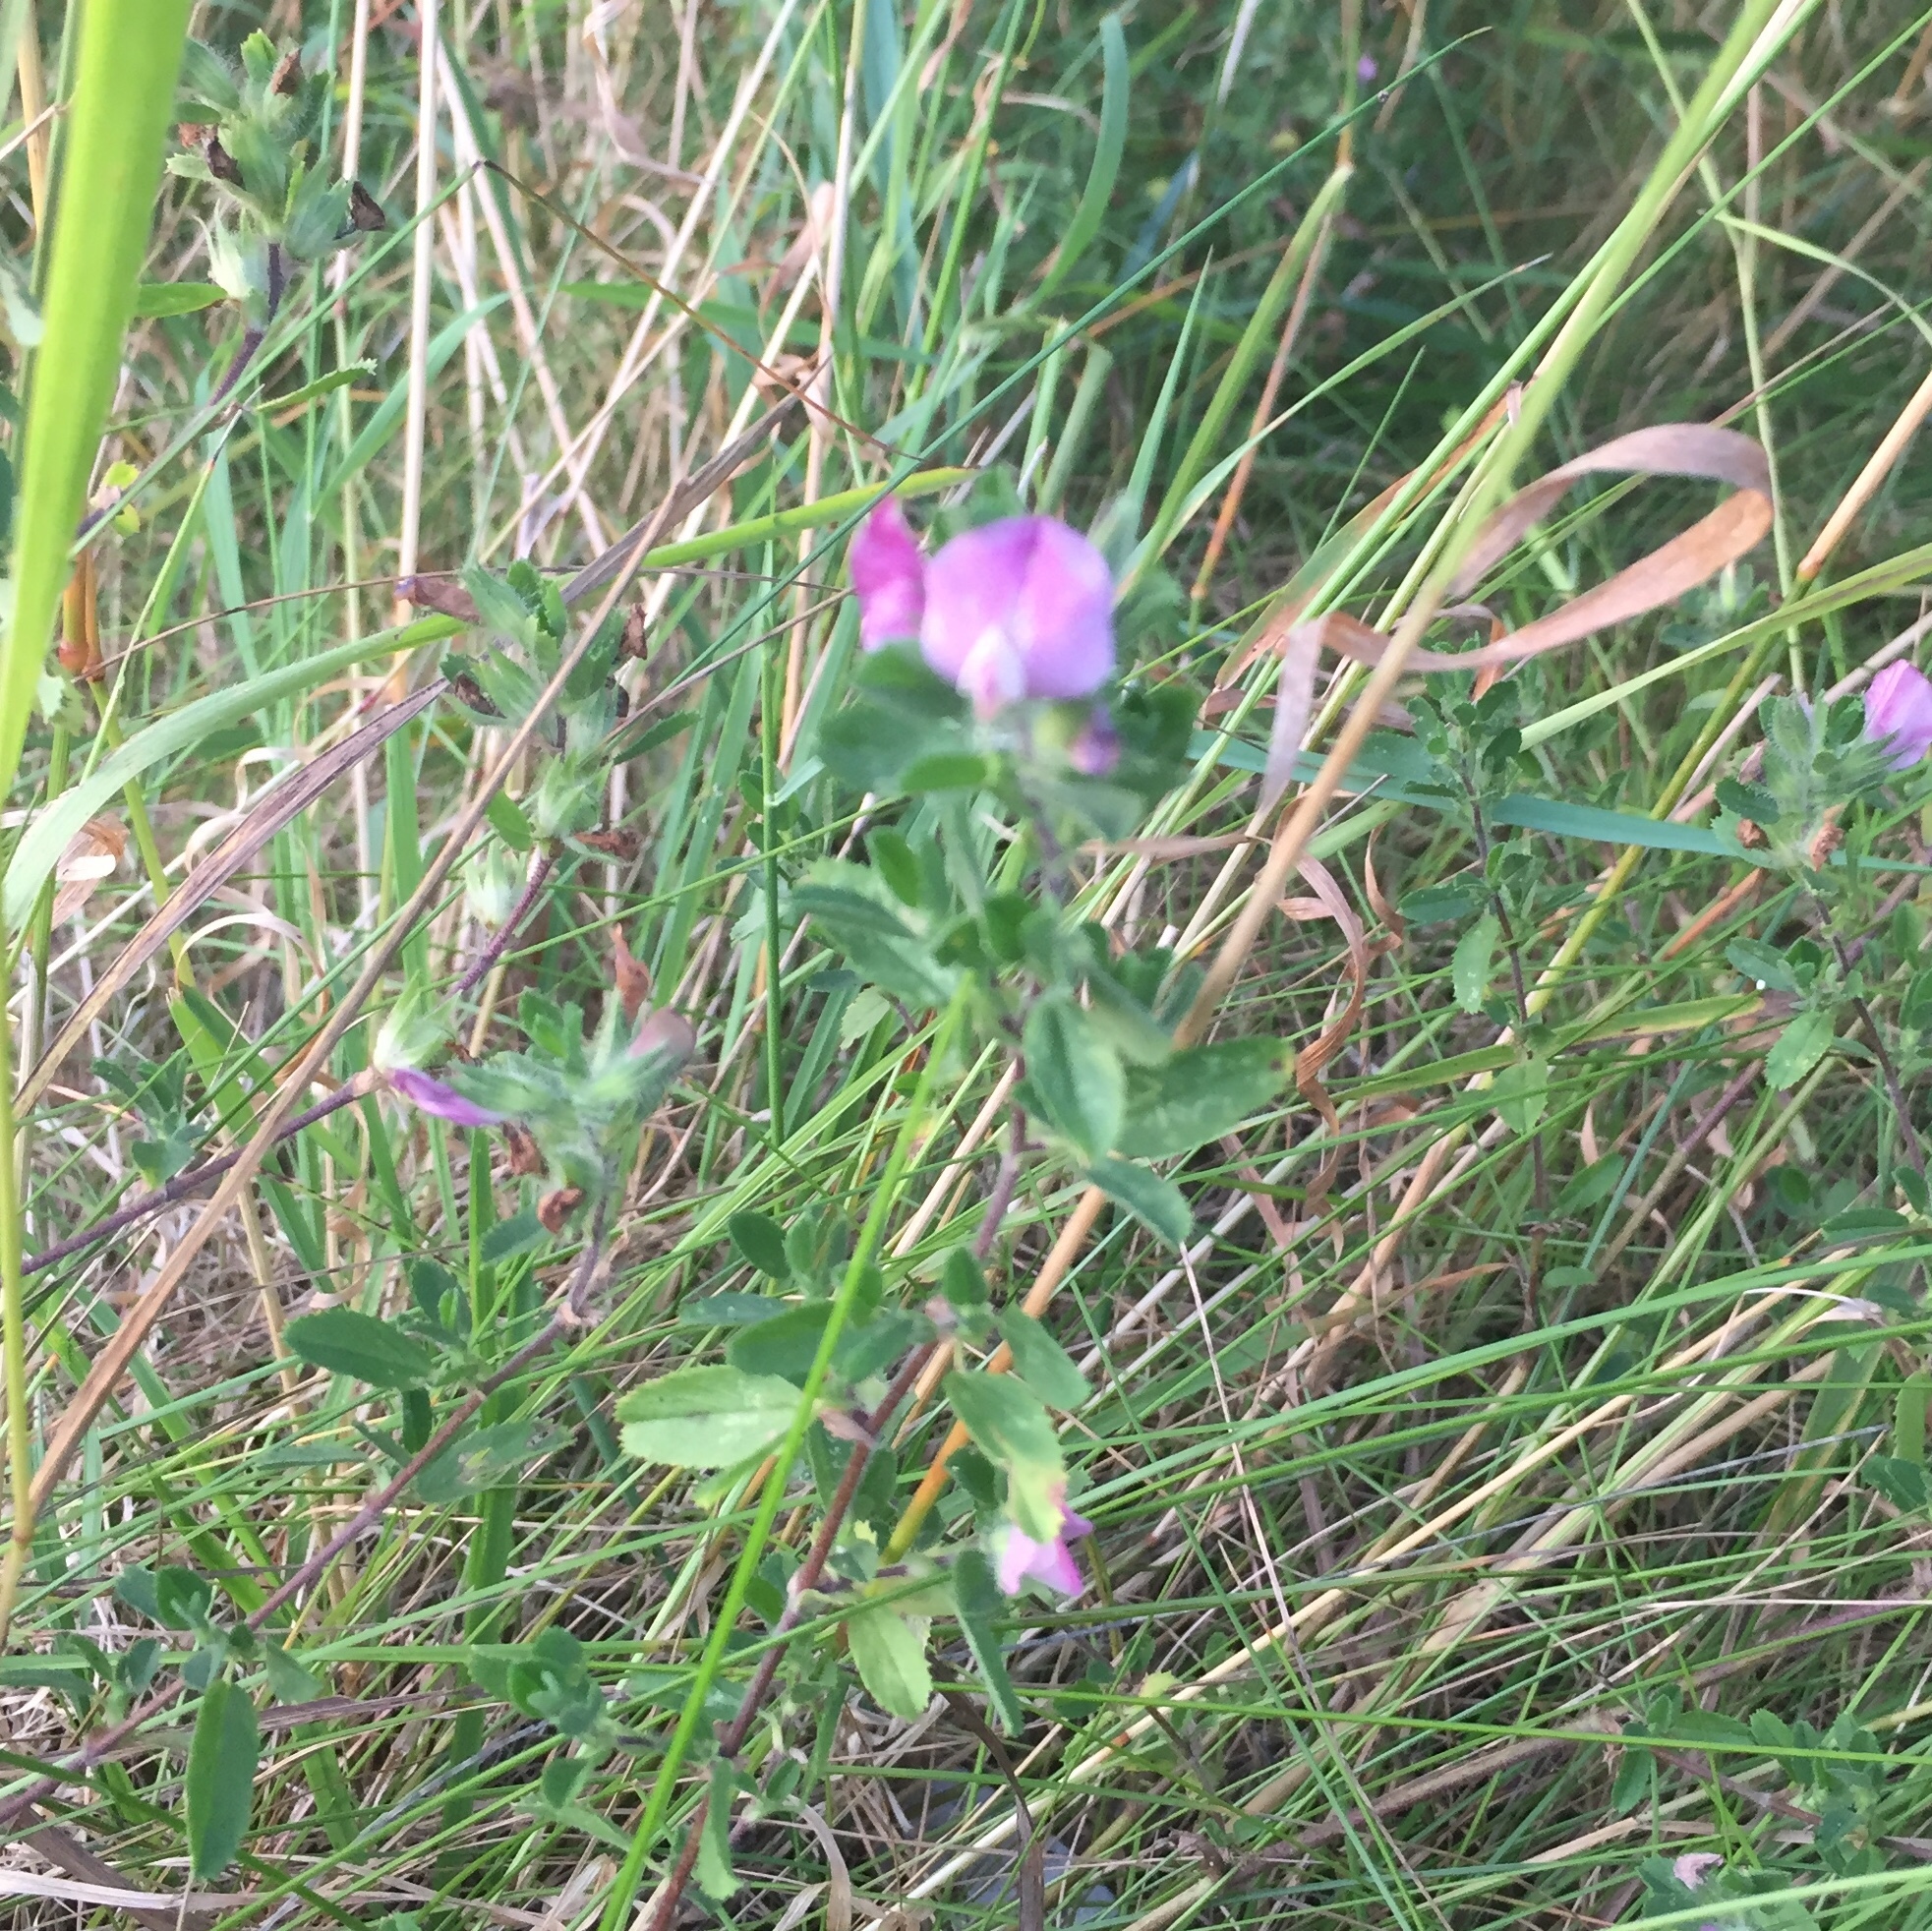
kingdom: Plantae
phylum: Tracheophyta
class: Magnoliopsida
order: Fabales
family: Fabaceae
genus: Ononis
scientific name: Ononis spinosa
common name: Spiny restharrow
